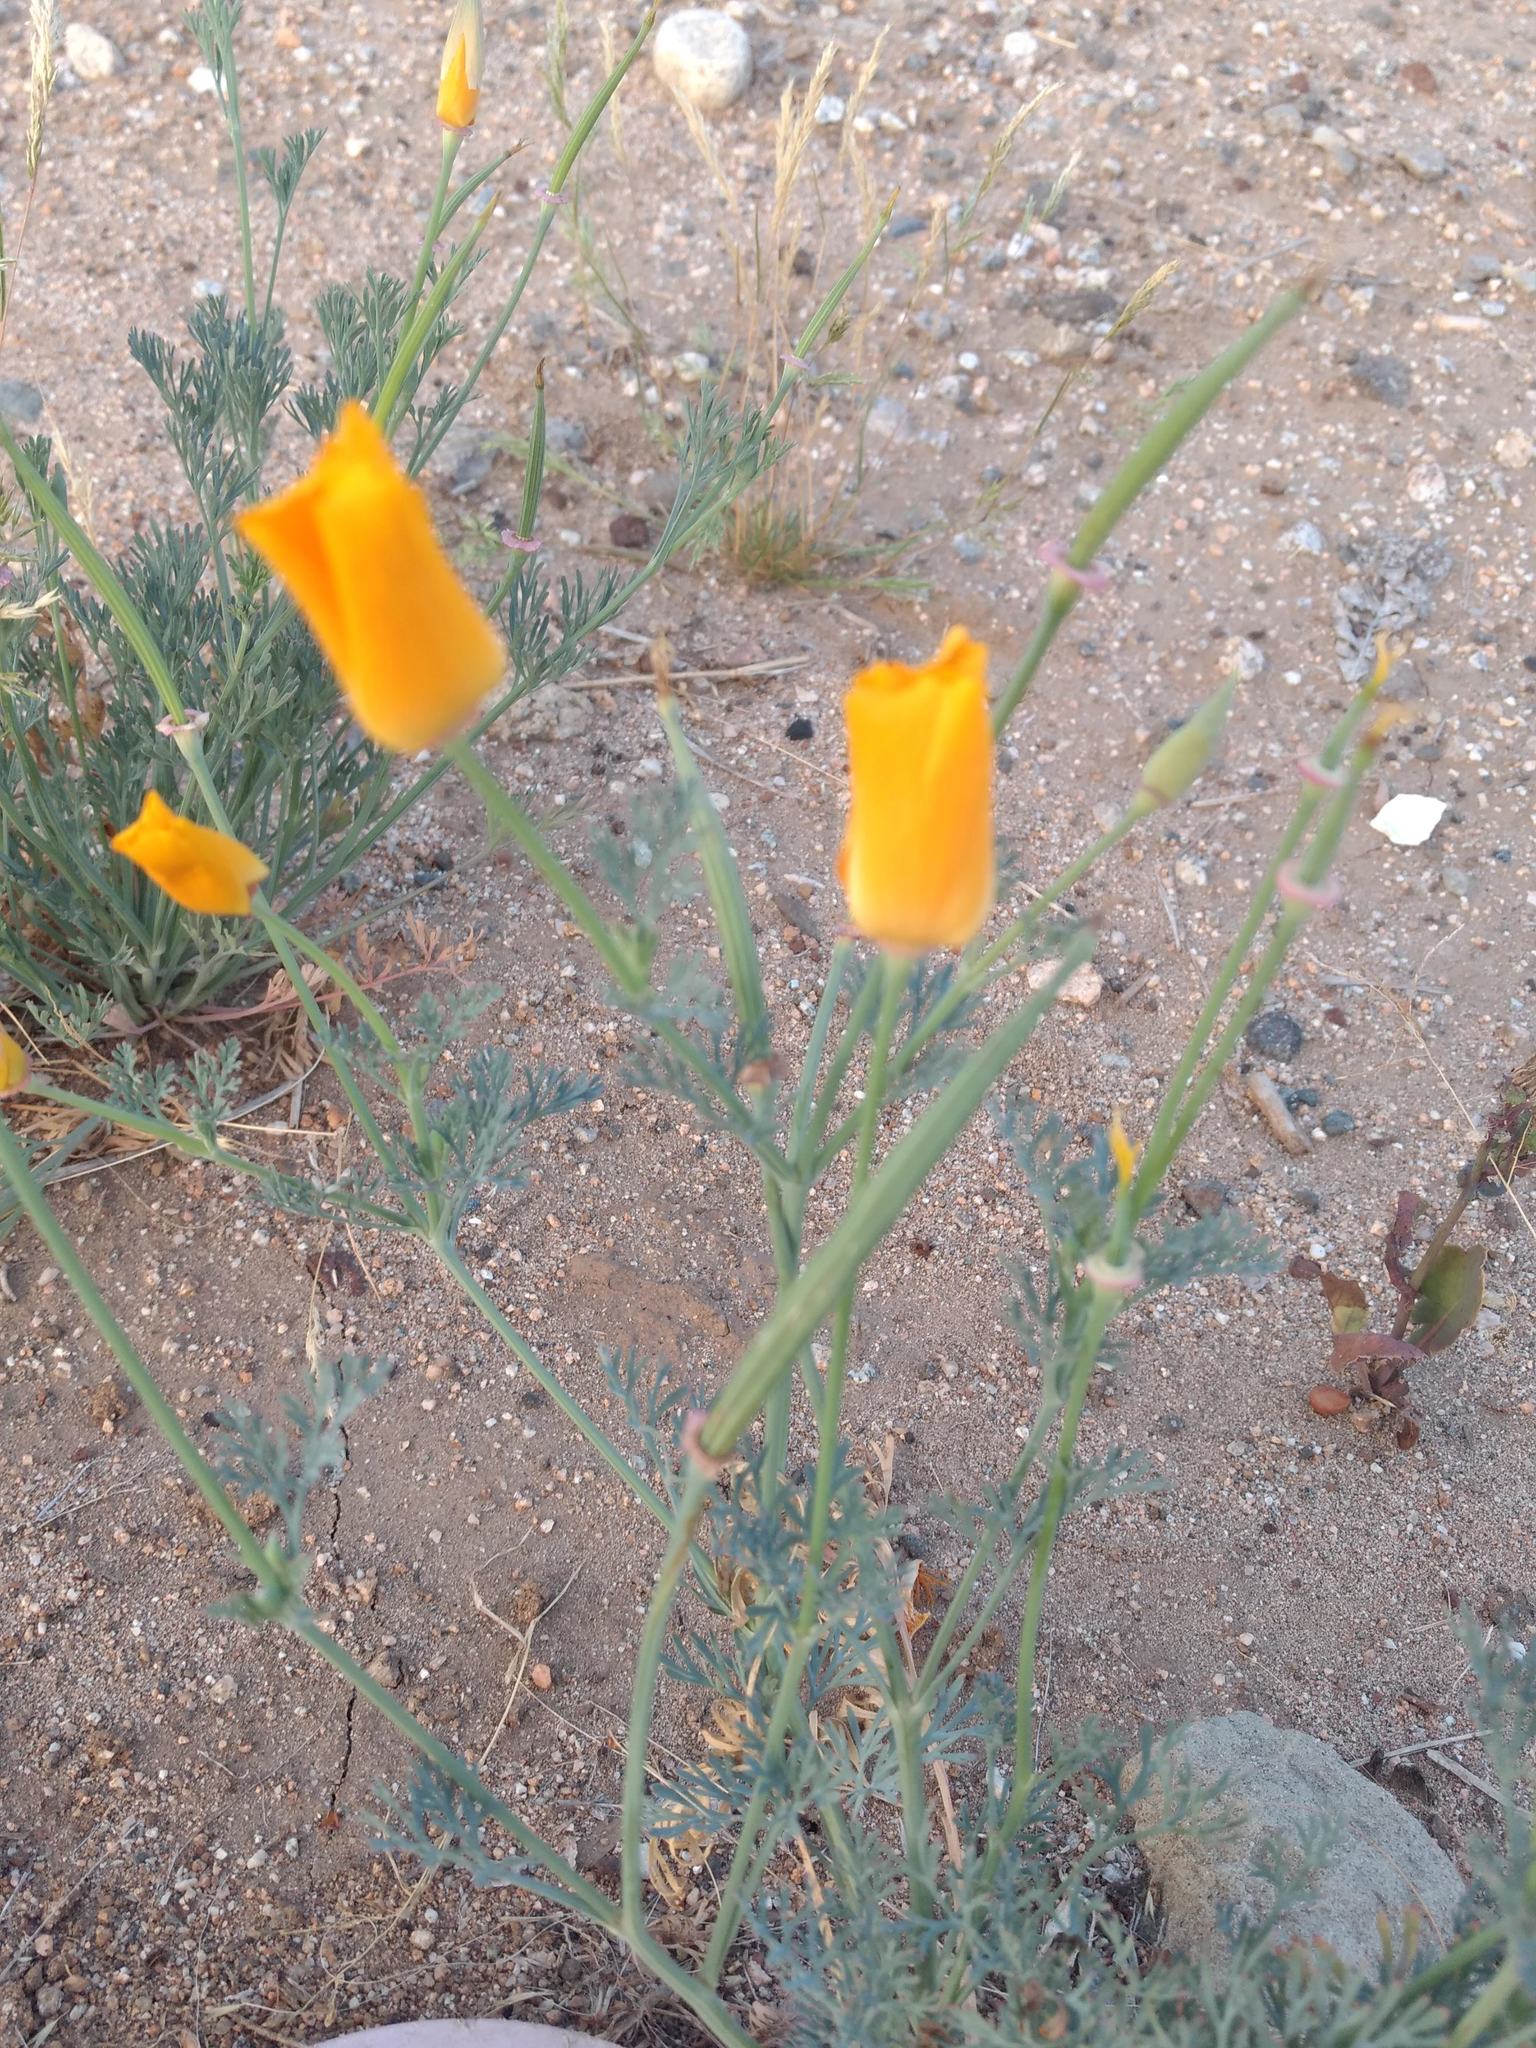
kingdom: Plantae
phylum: Tracheophyta
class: Magnoliopsida
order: Ranunculales
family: Papaveraceae
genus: Eschscholzia
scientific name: Eschscholzia californica
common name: California poppy
